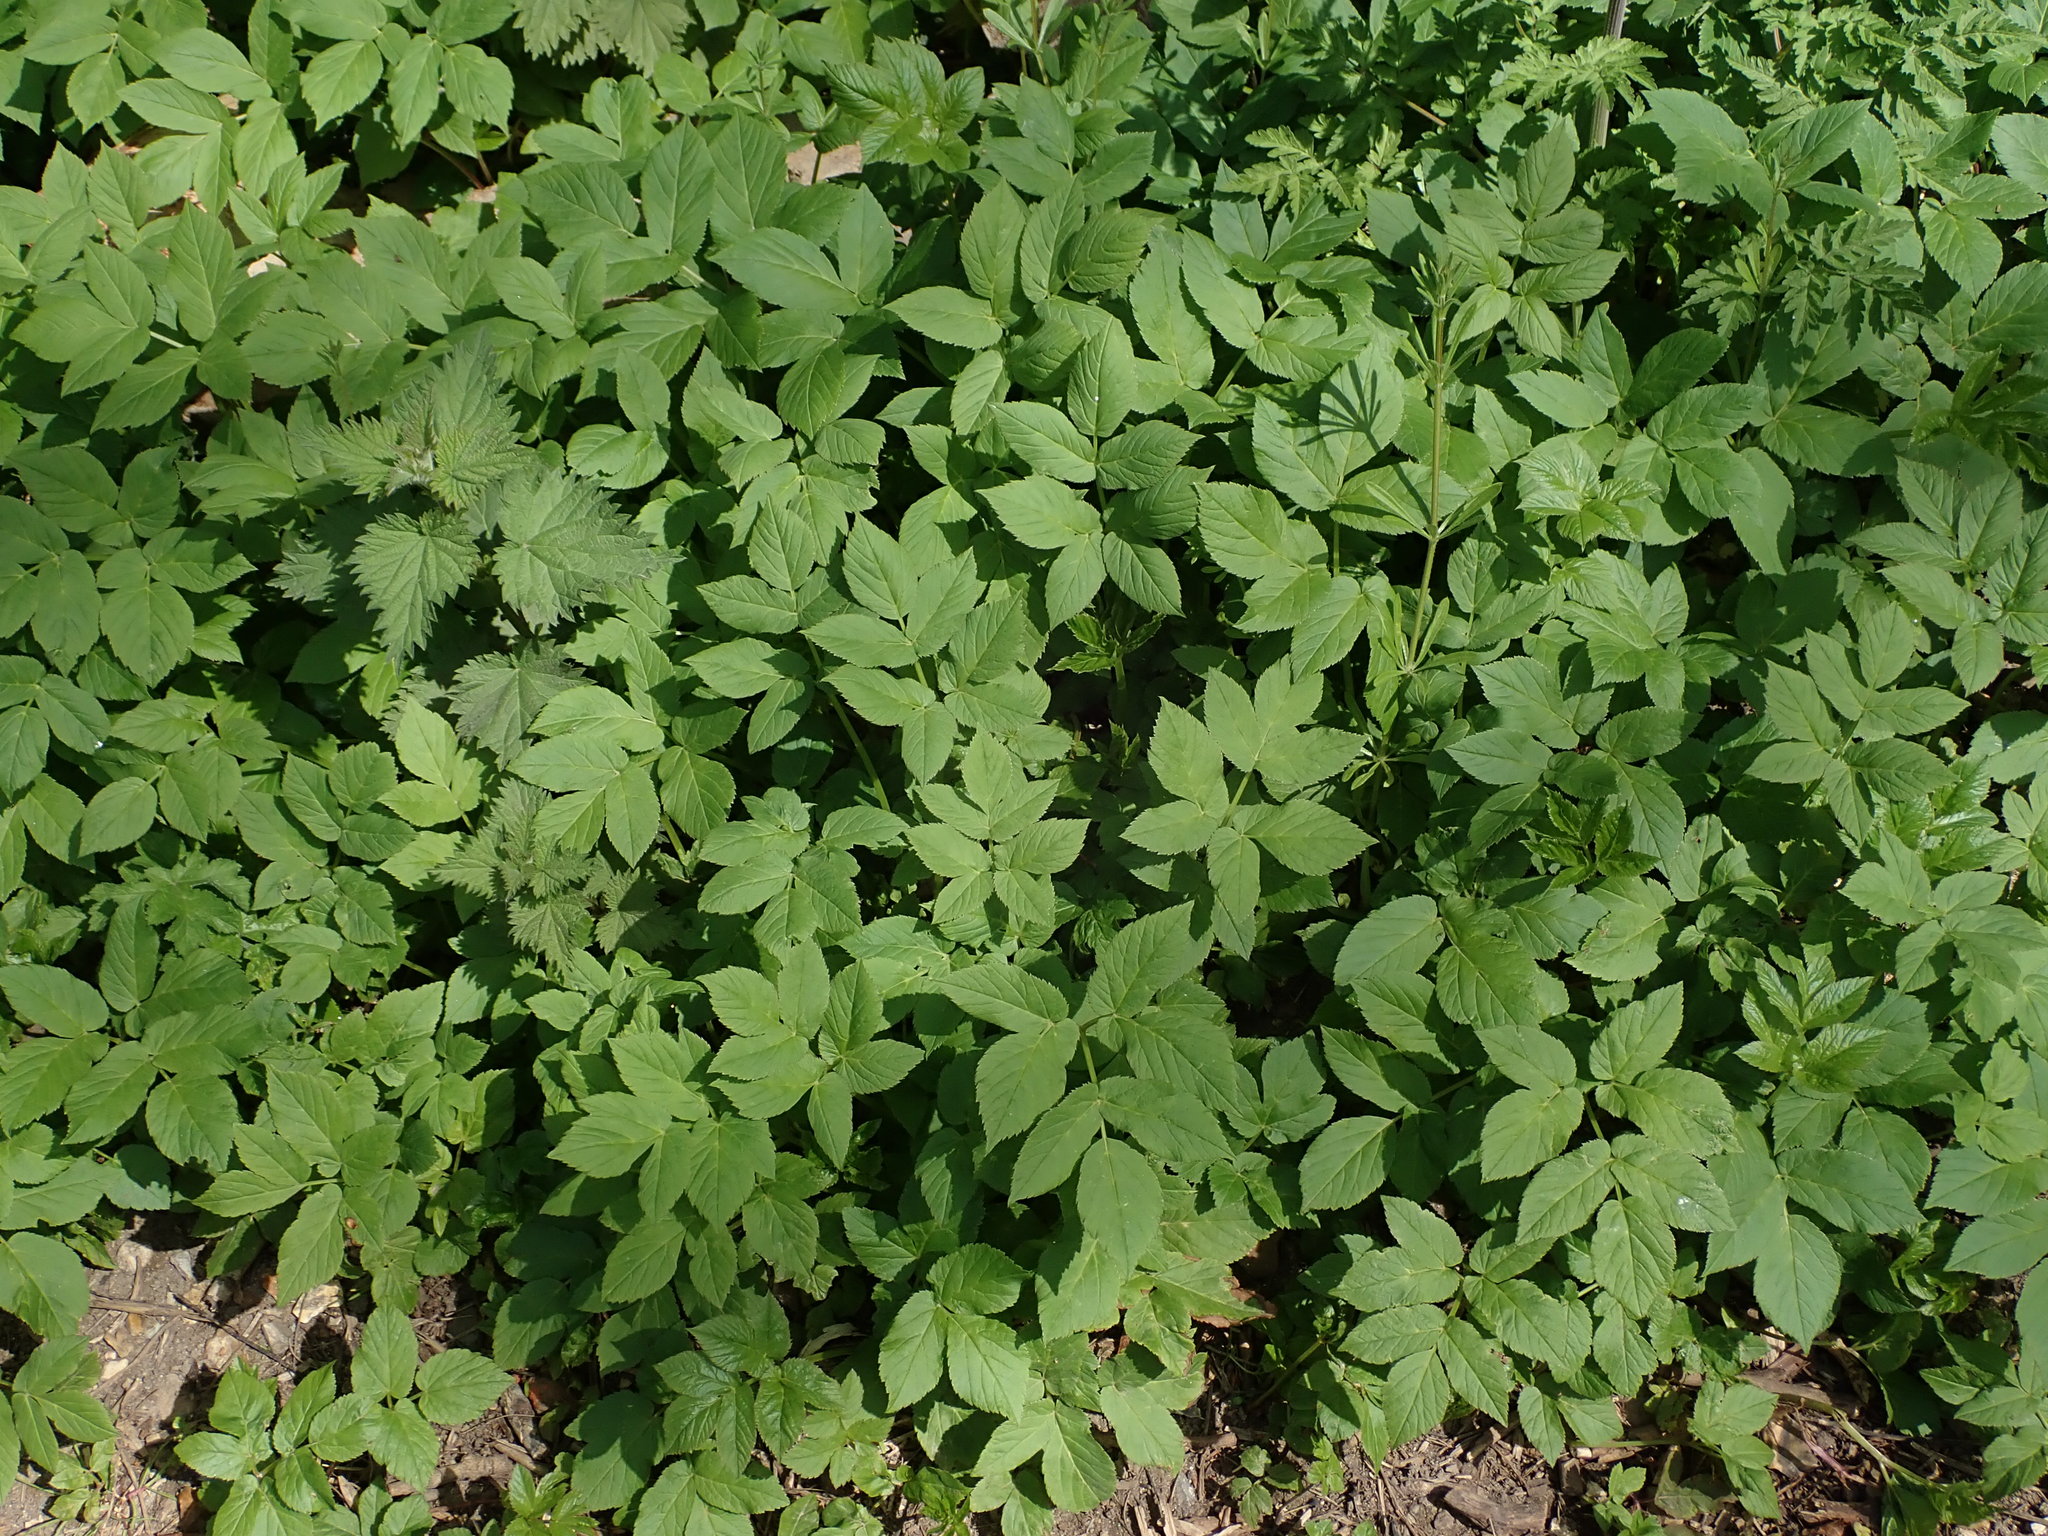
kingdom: Plantae
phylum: Tracheophyta
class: Magnoliopsida
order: Apiales
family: Apiaceae
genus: Aegopodium
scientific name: Aegopodium podagraria
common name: Ground-elder
